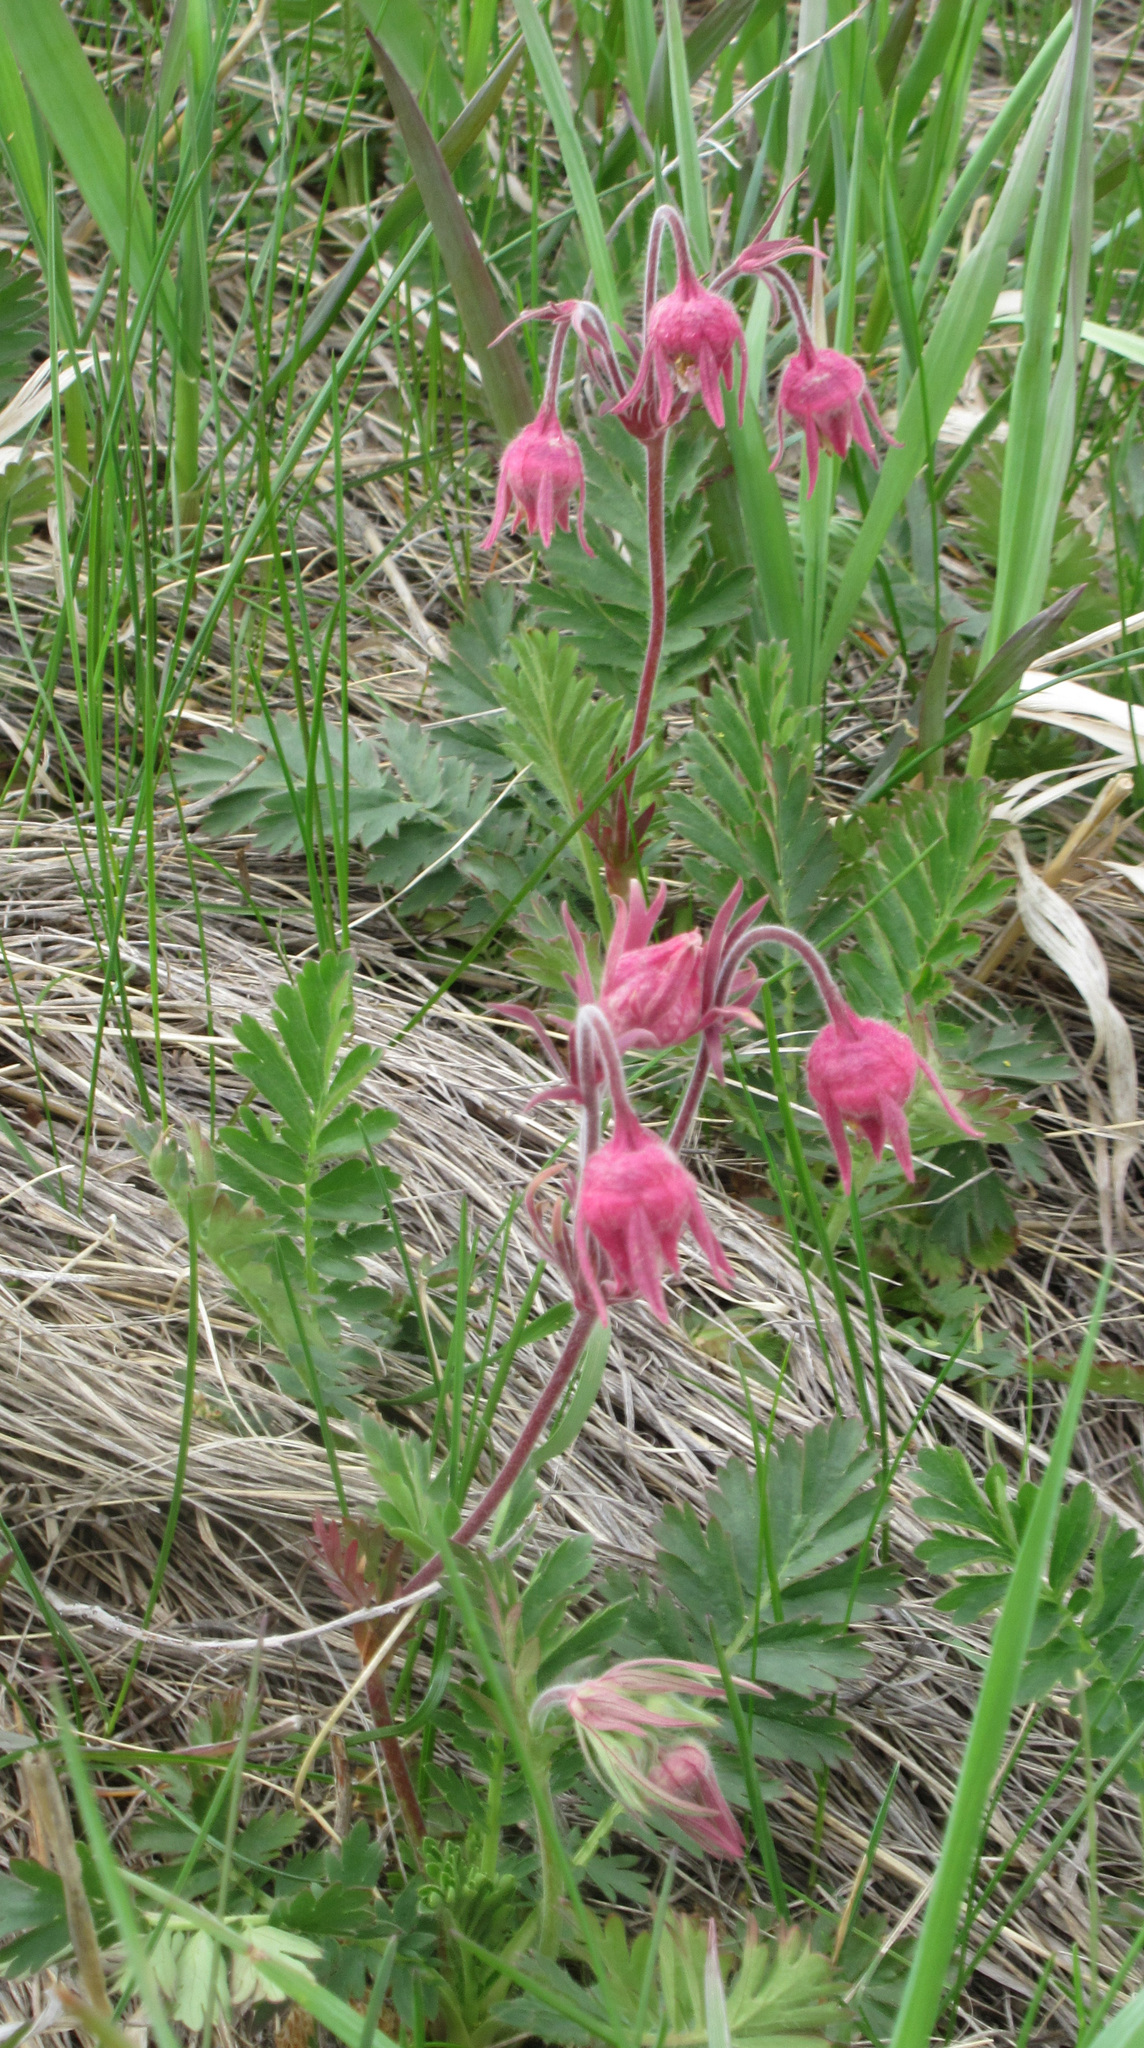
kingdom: Plantae
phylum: Tracheophyta
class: Magnoliopsida
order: Rosales
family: Rosaceae
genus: Geum
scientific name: Geum triflorum
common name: Old man's whiskers
